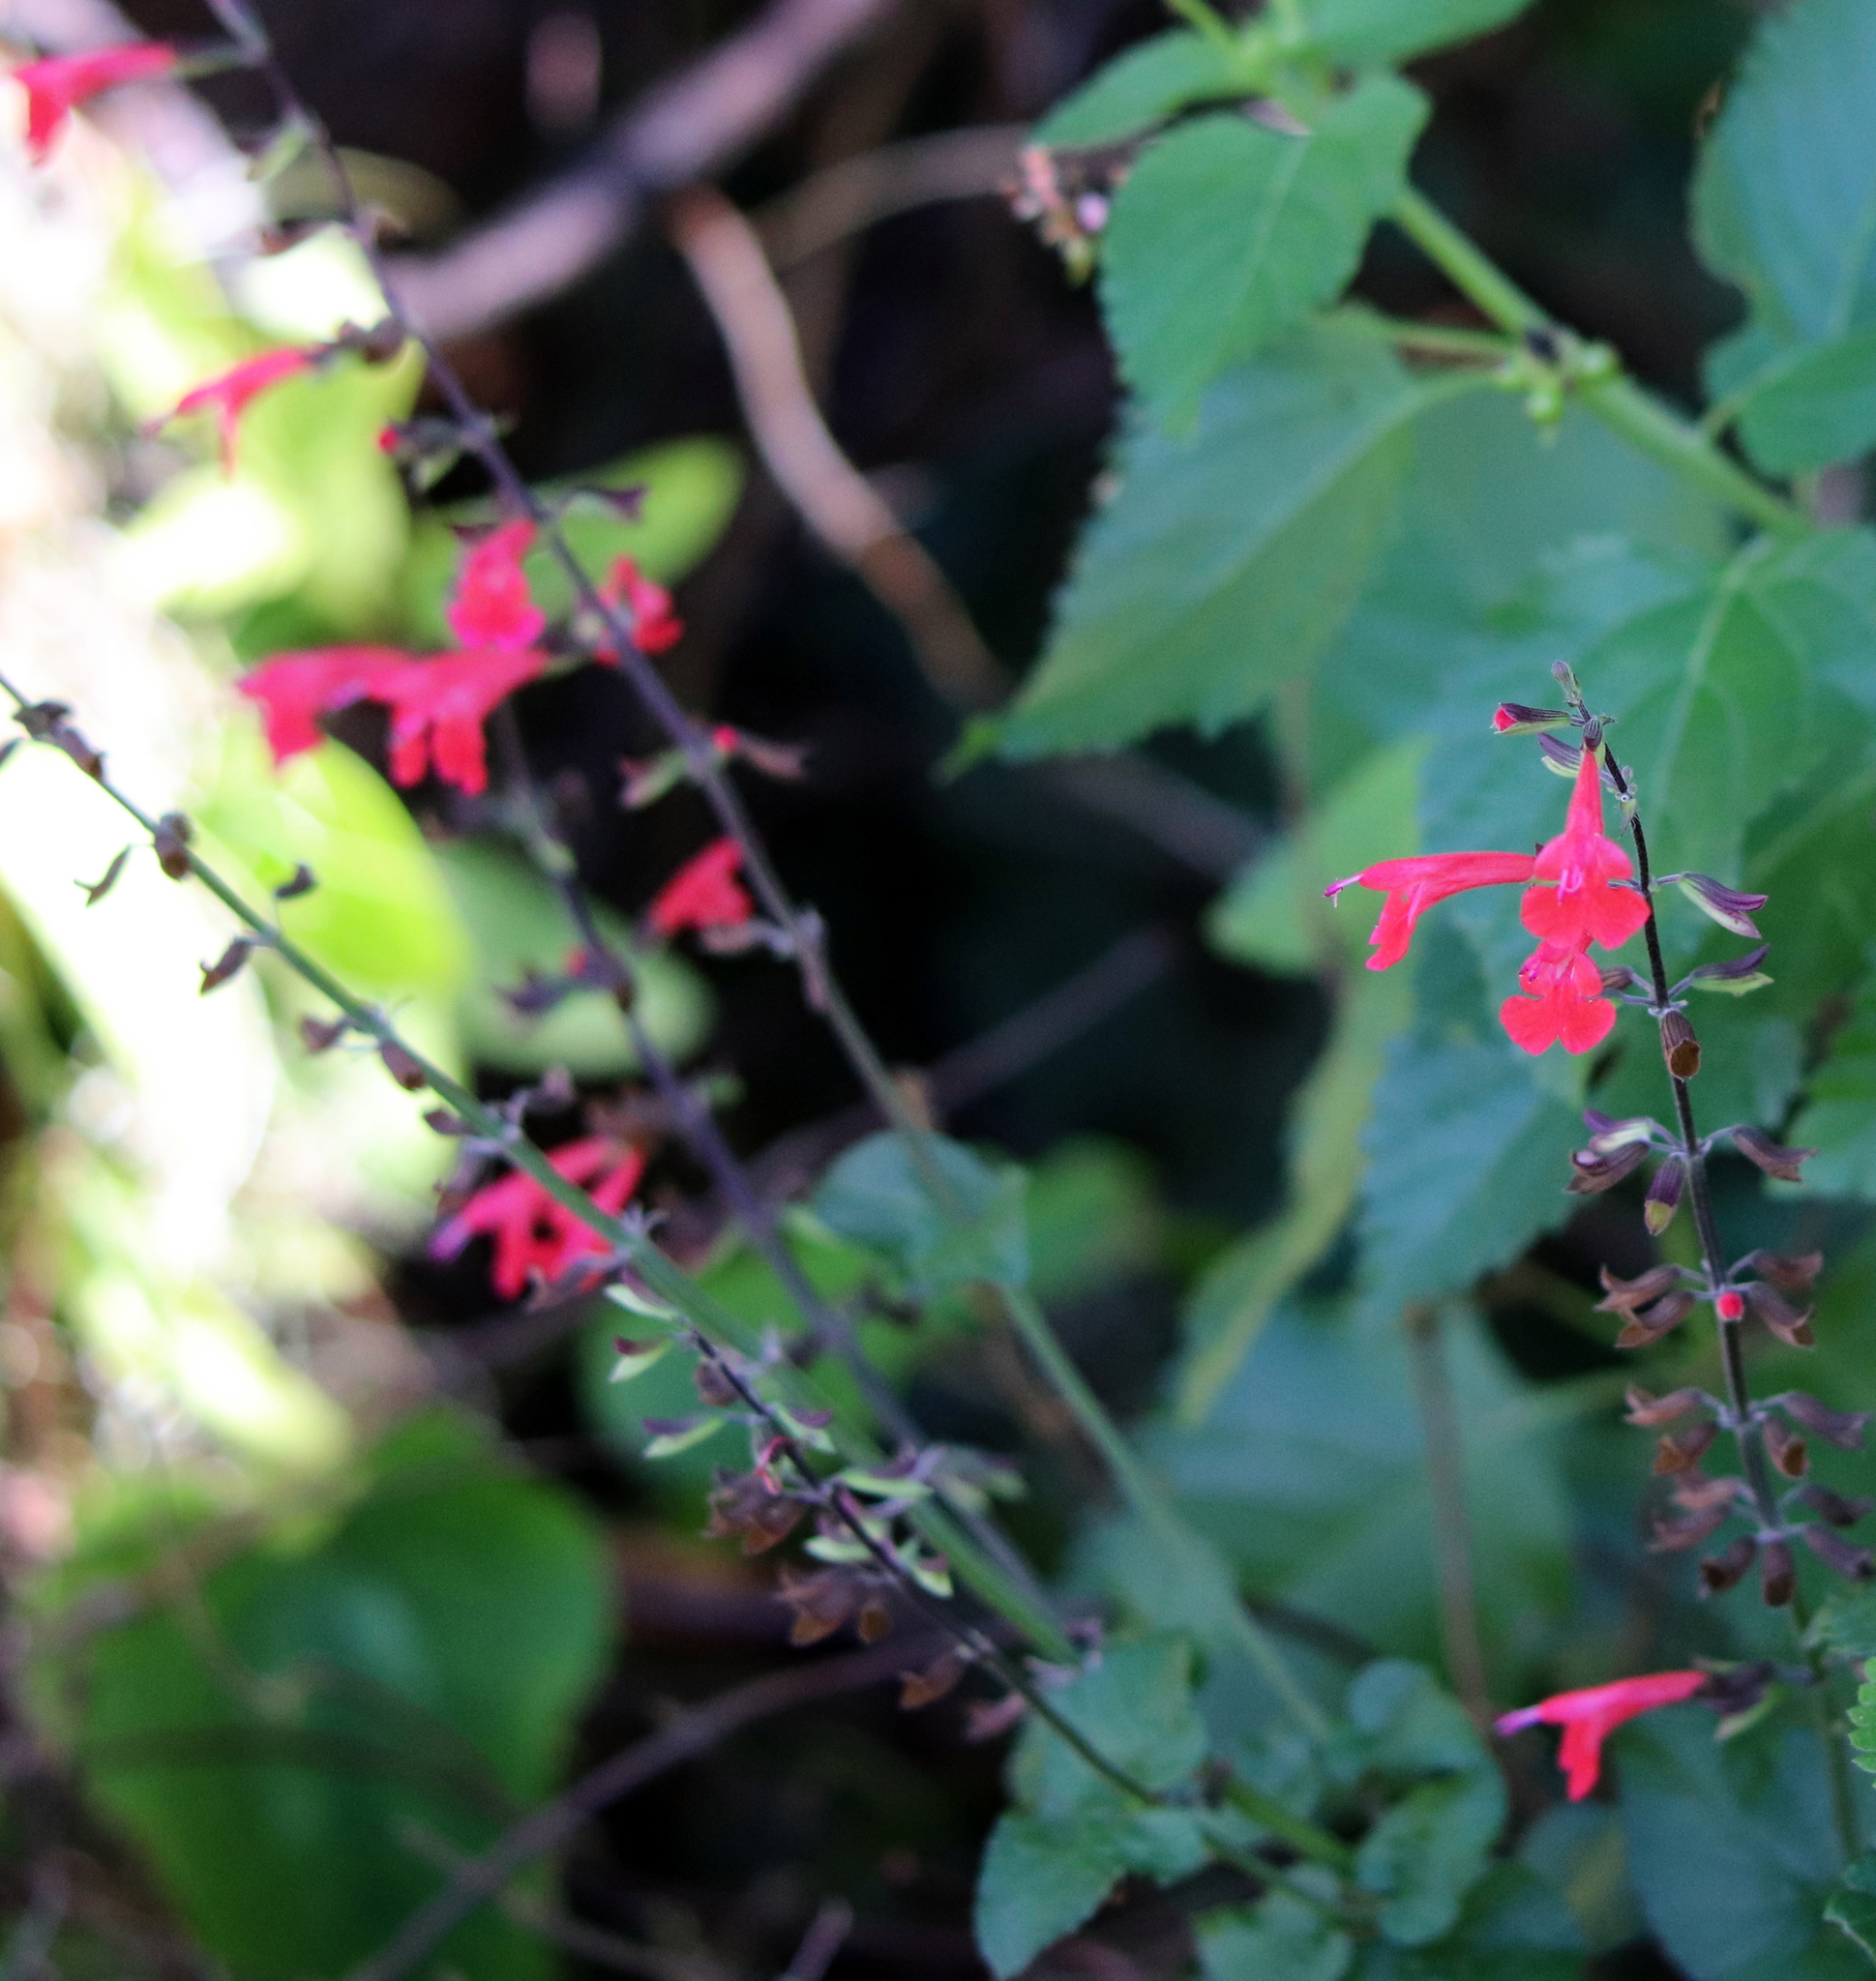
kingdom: Plantae
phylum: Tracheophyta
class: Magnoliopsida
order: Lamiales
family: Lamiaceae
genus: Salvia
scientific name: Salvia coccinea
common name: Blood sage
